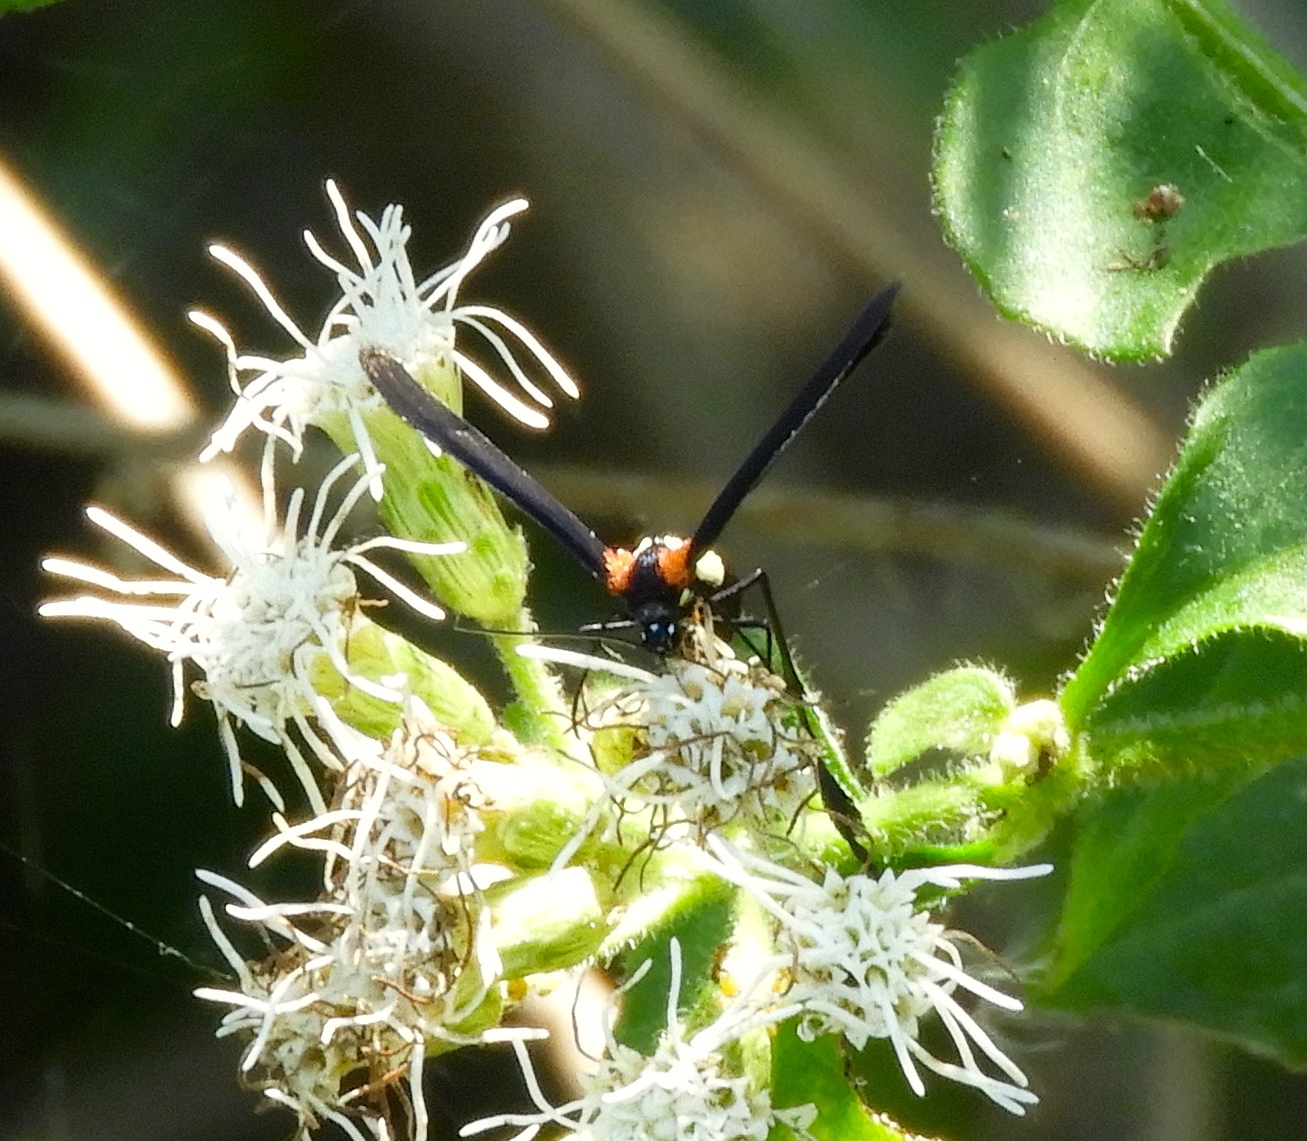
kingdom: Animalia
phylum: Arthropoda
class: Insecta
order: Lepidoptera
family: Pterophoridae
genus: Hellinsia
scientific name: Hellinsia chamelai
